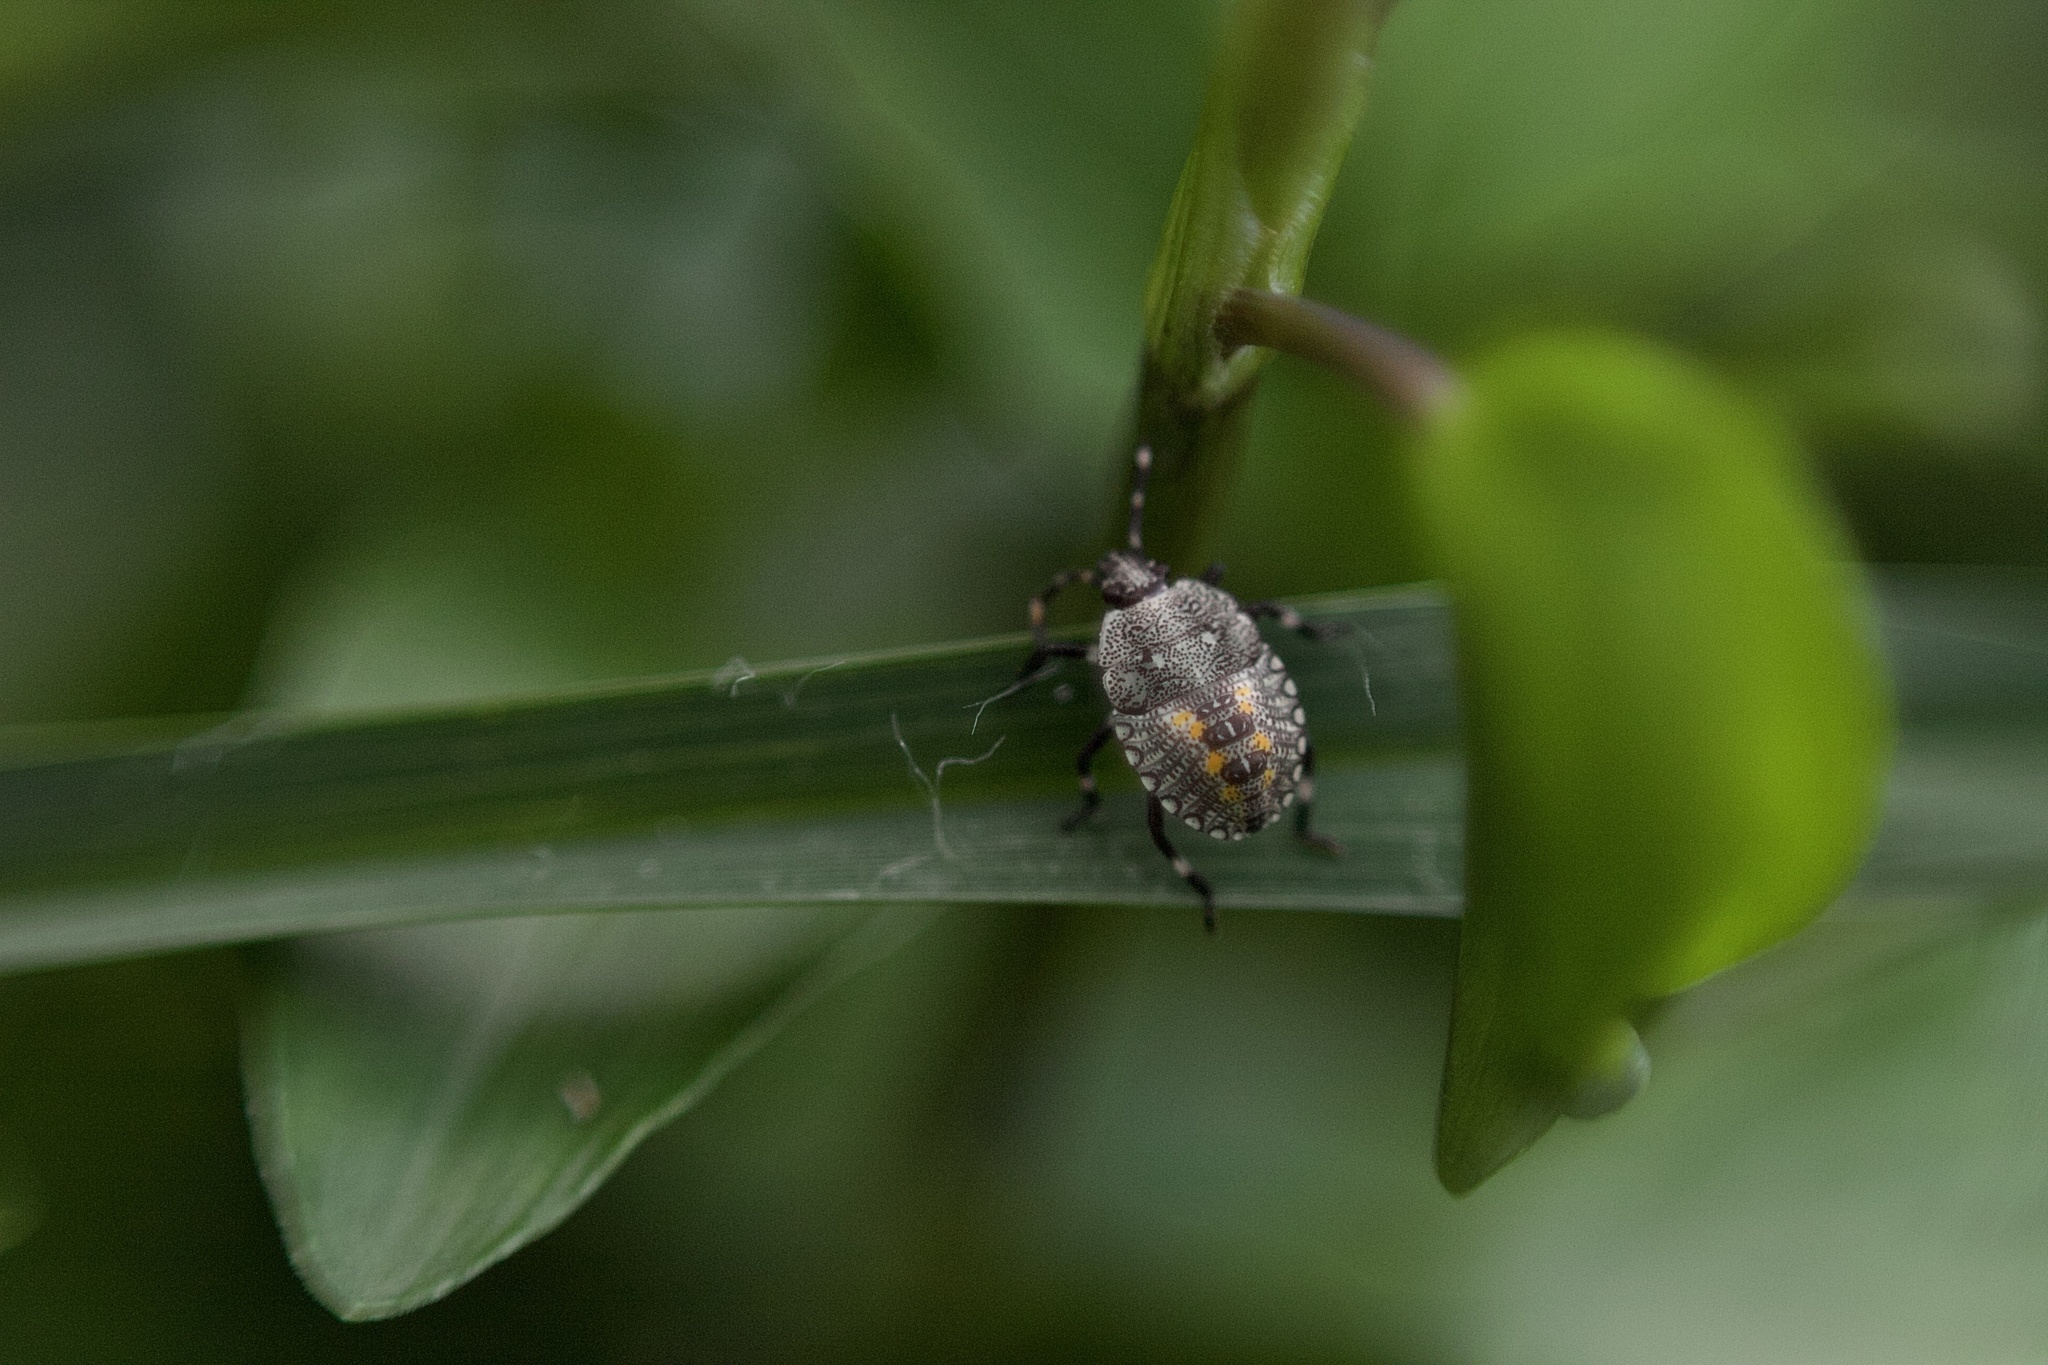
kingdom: Animalia
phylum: Arthropoda
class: Insecta
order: Hemiptera
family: Pentatomidae
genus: Proxys
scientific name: Proxys punctulatus
